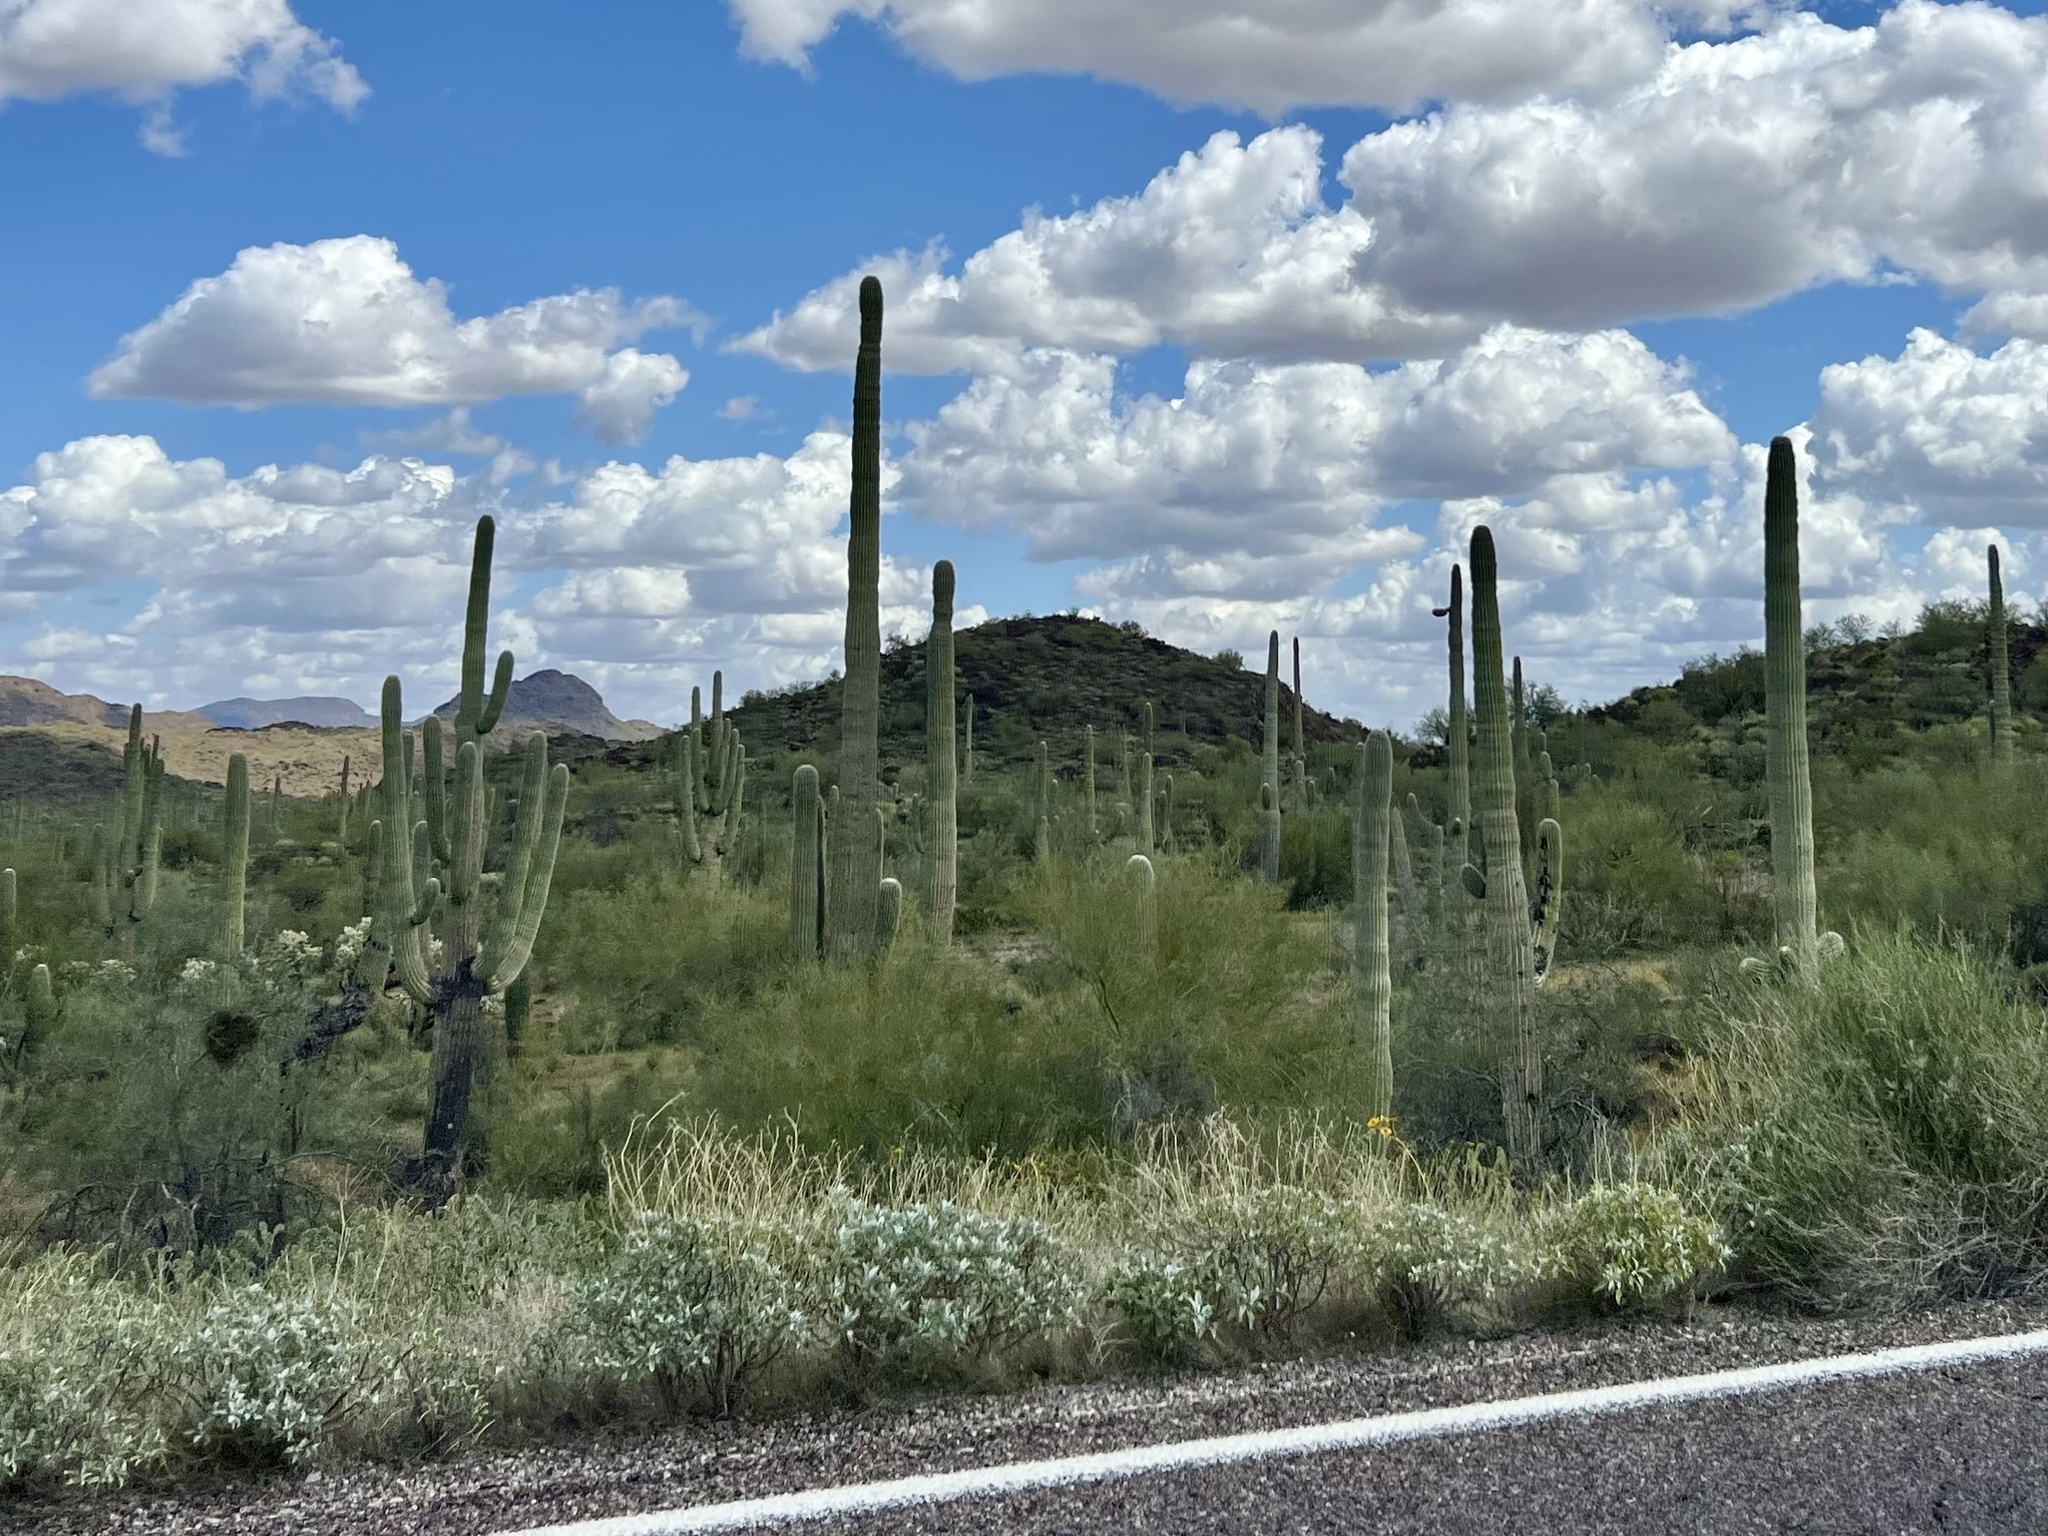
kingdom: Plantae
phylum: Tracheophyta
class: Magnoliopsida
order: Caryophyllales
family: Cactaceae
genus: Carnegiea
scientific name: Carnegiea gigantea
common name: Saguaro
